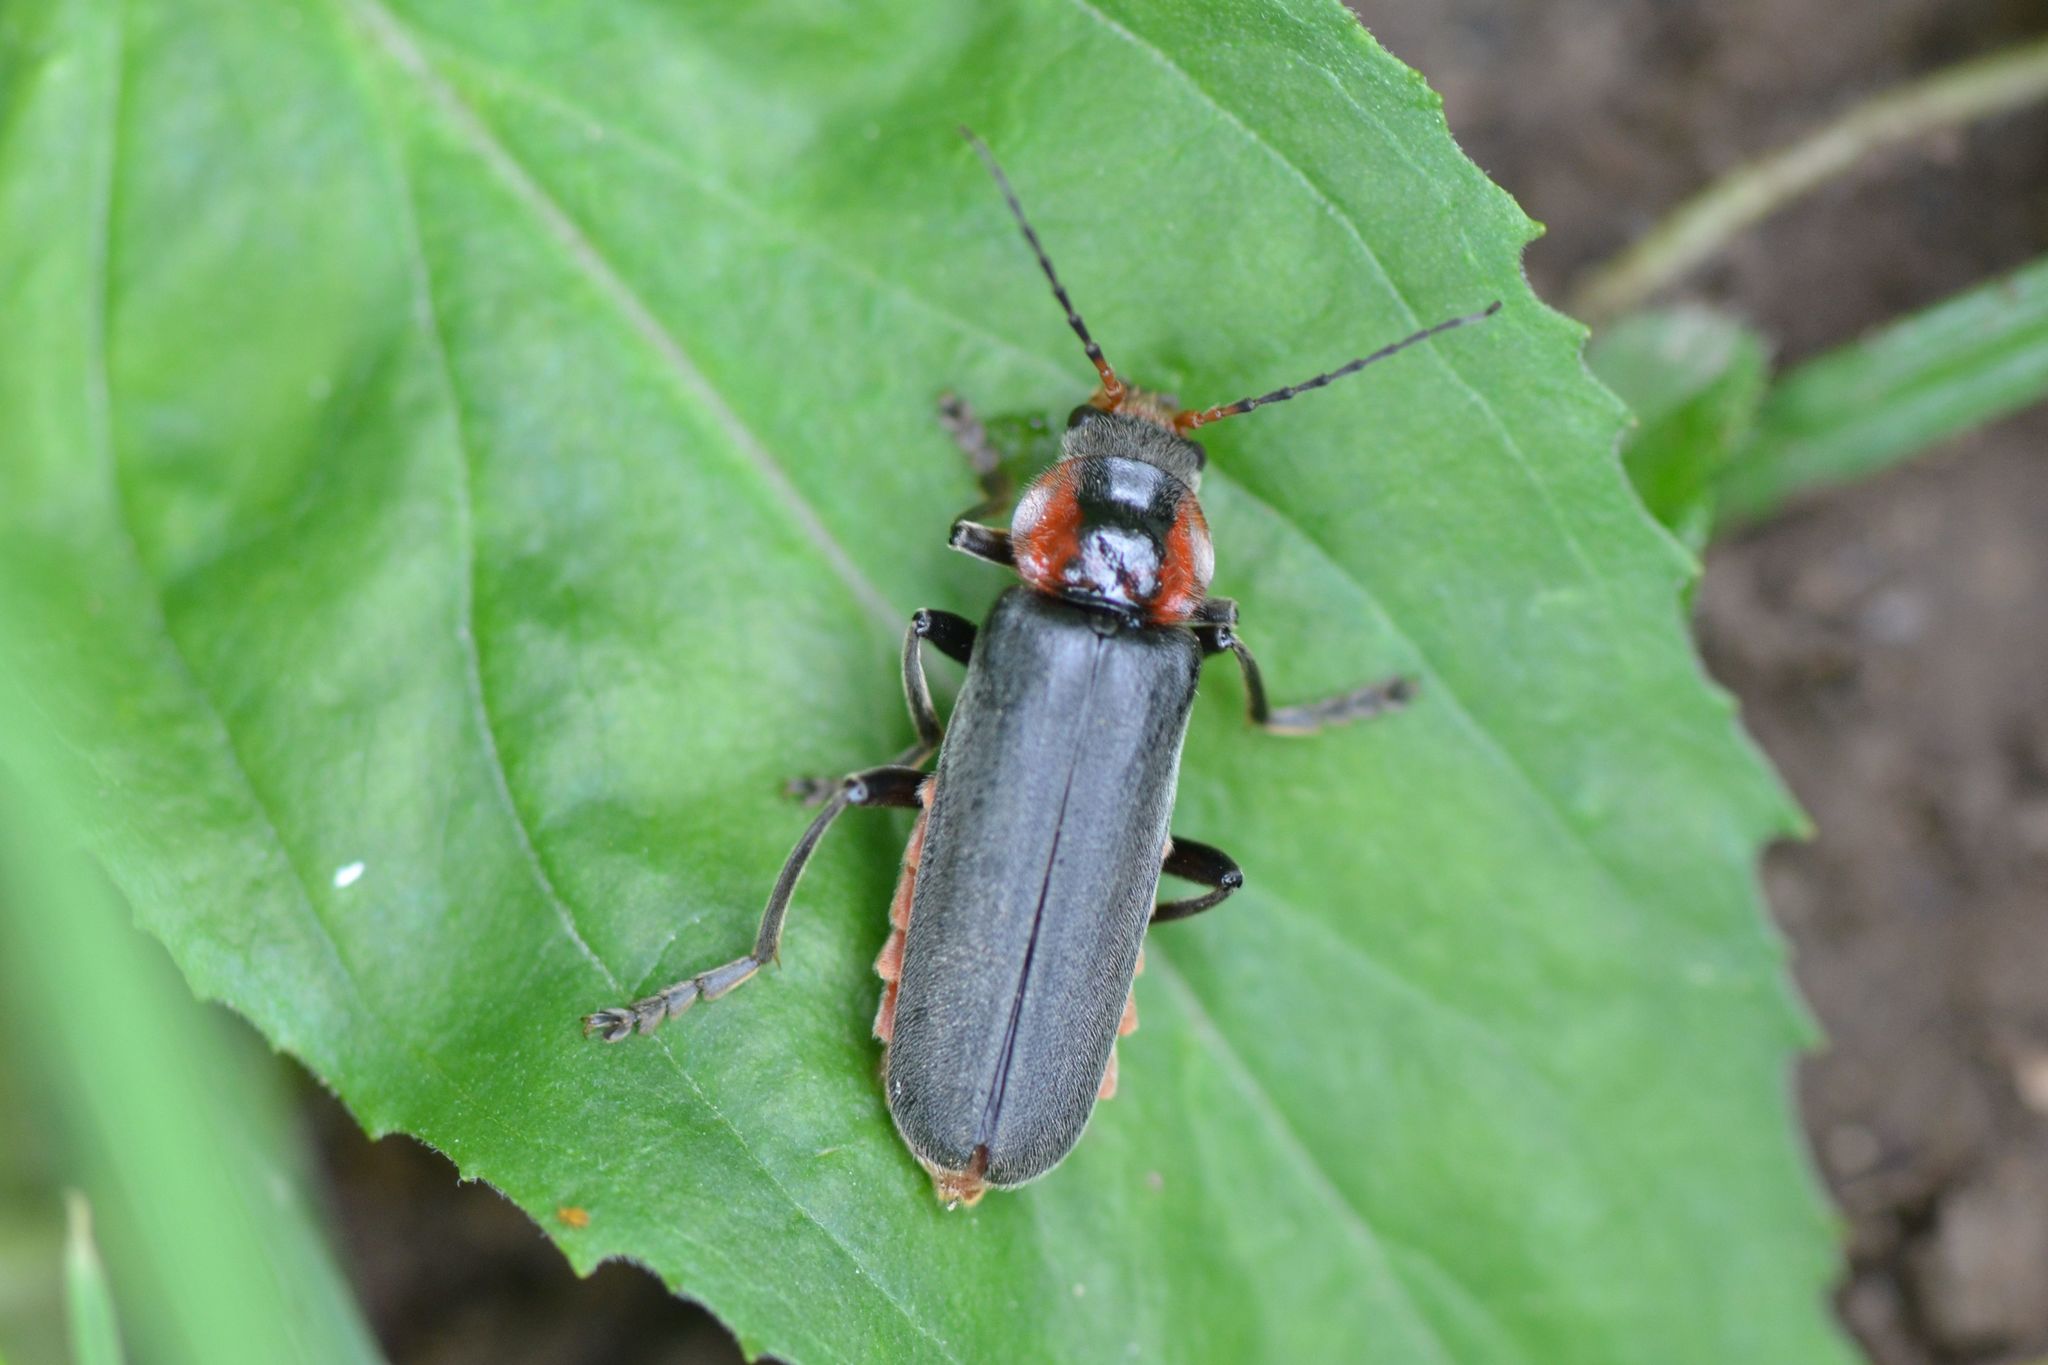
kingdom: Animalia
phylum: Arthropoda
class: Insecta
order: Coleoptera
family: Cantharidae
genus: Cantharis
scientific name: Cantharis fusca
